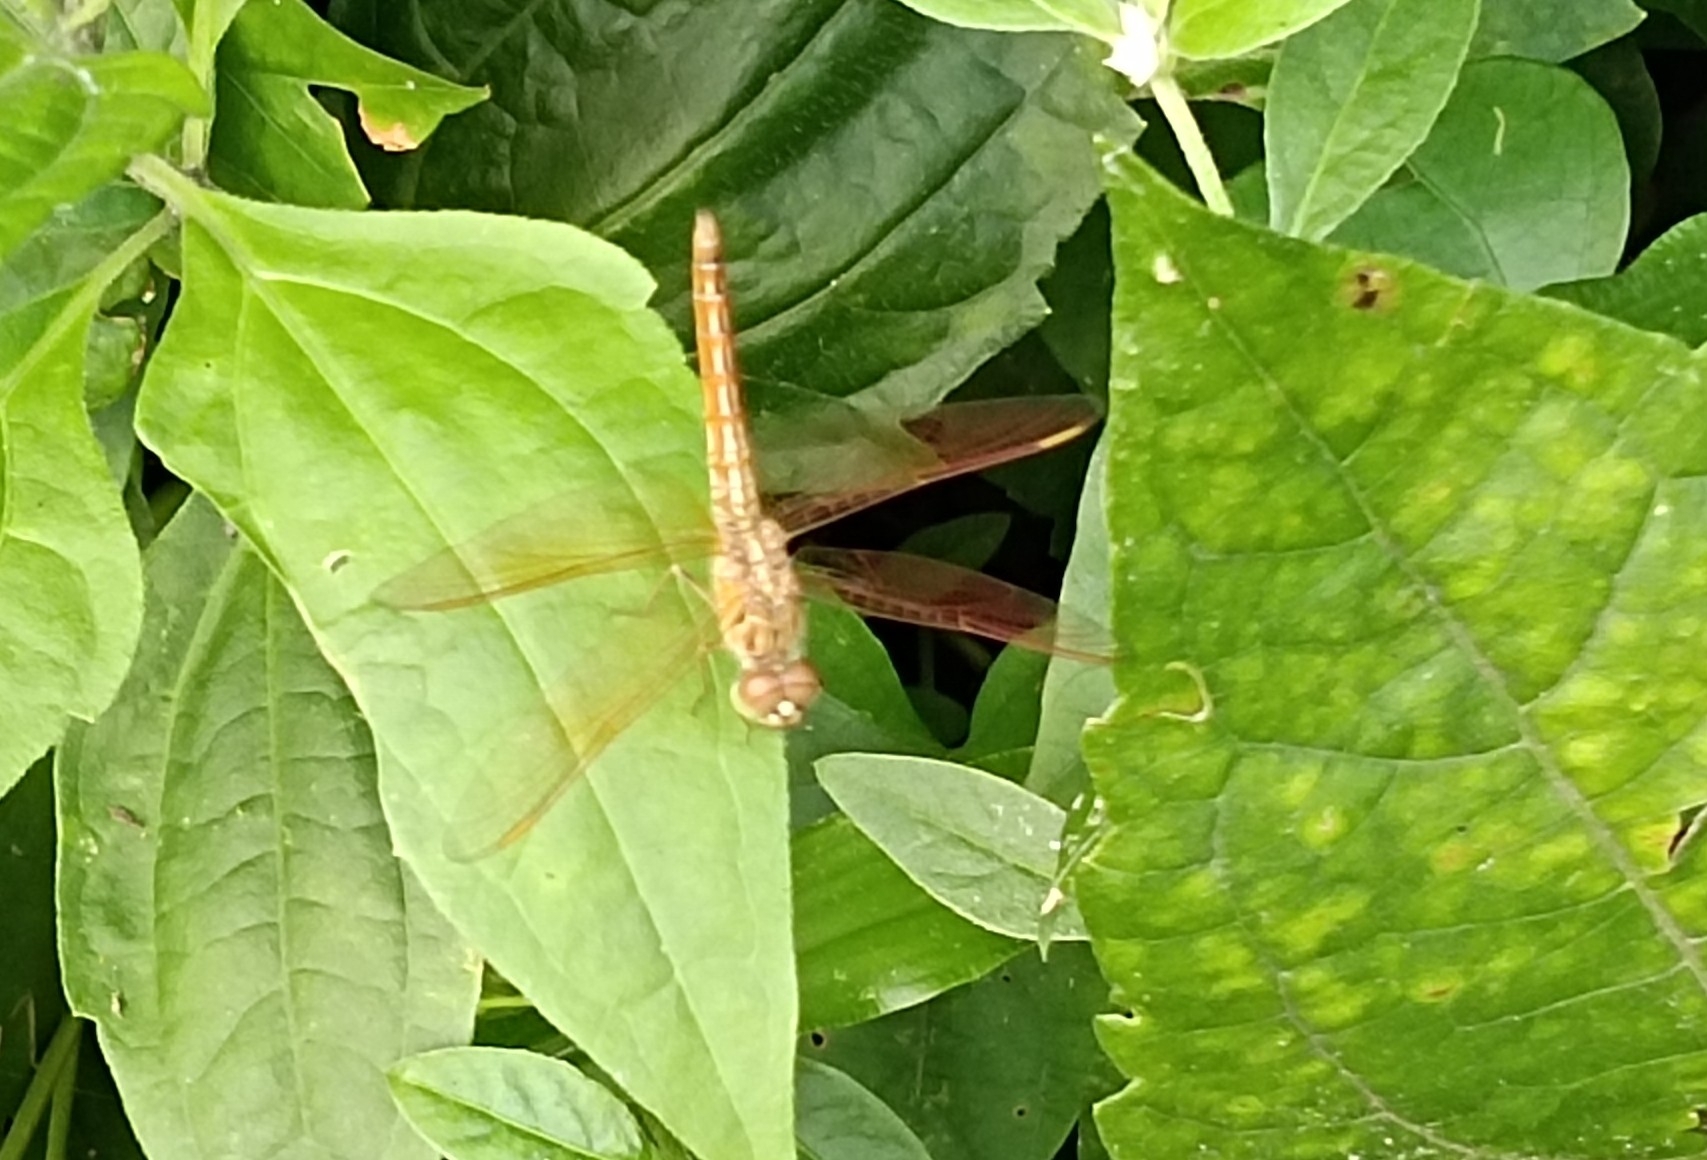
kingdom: Animalia
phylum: Arthropoda
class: Insecta
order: Odonata
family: Libellulidae
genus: Brachythemis
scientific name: Brachythemis contaminata
